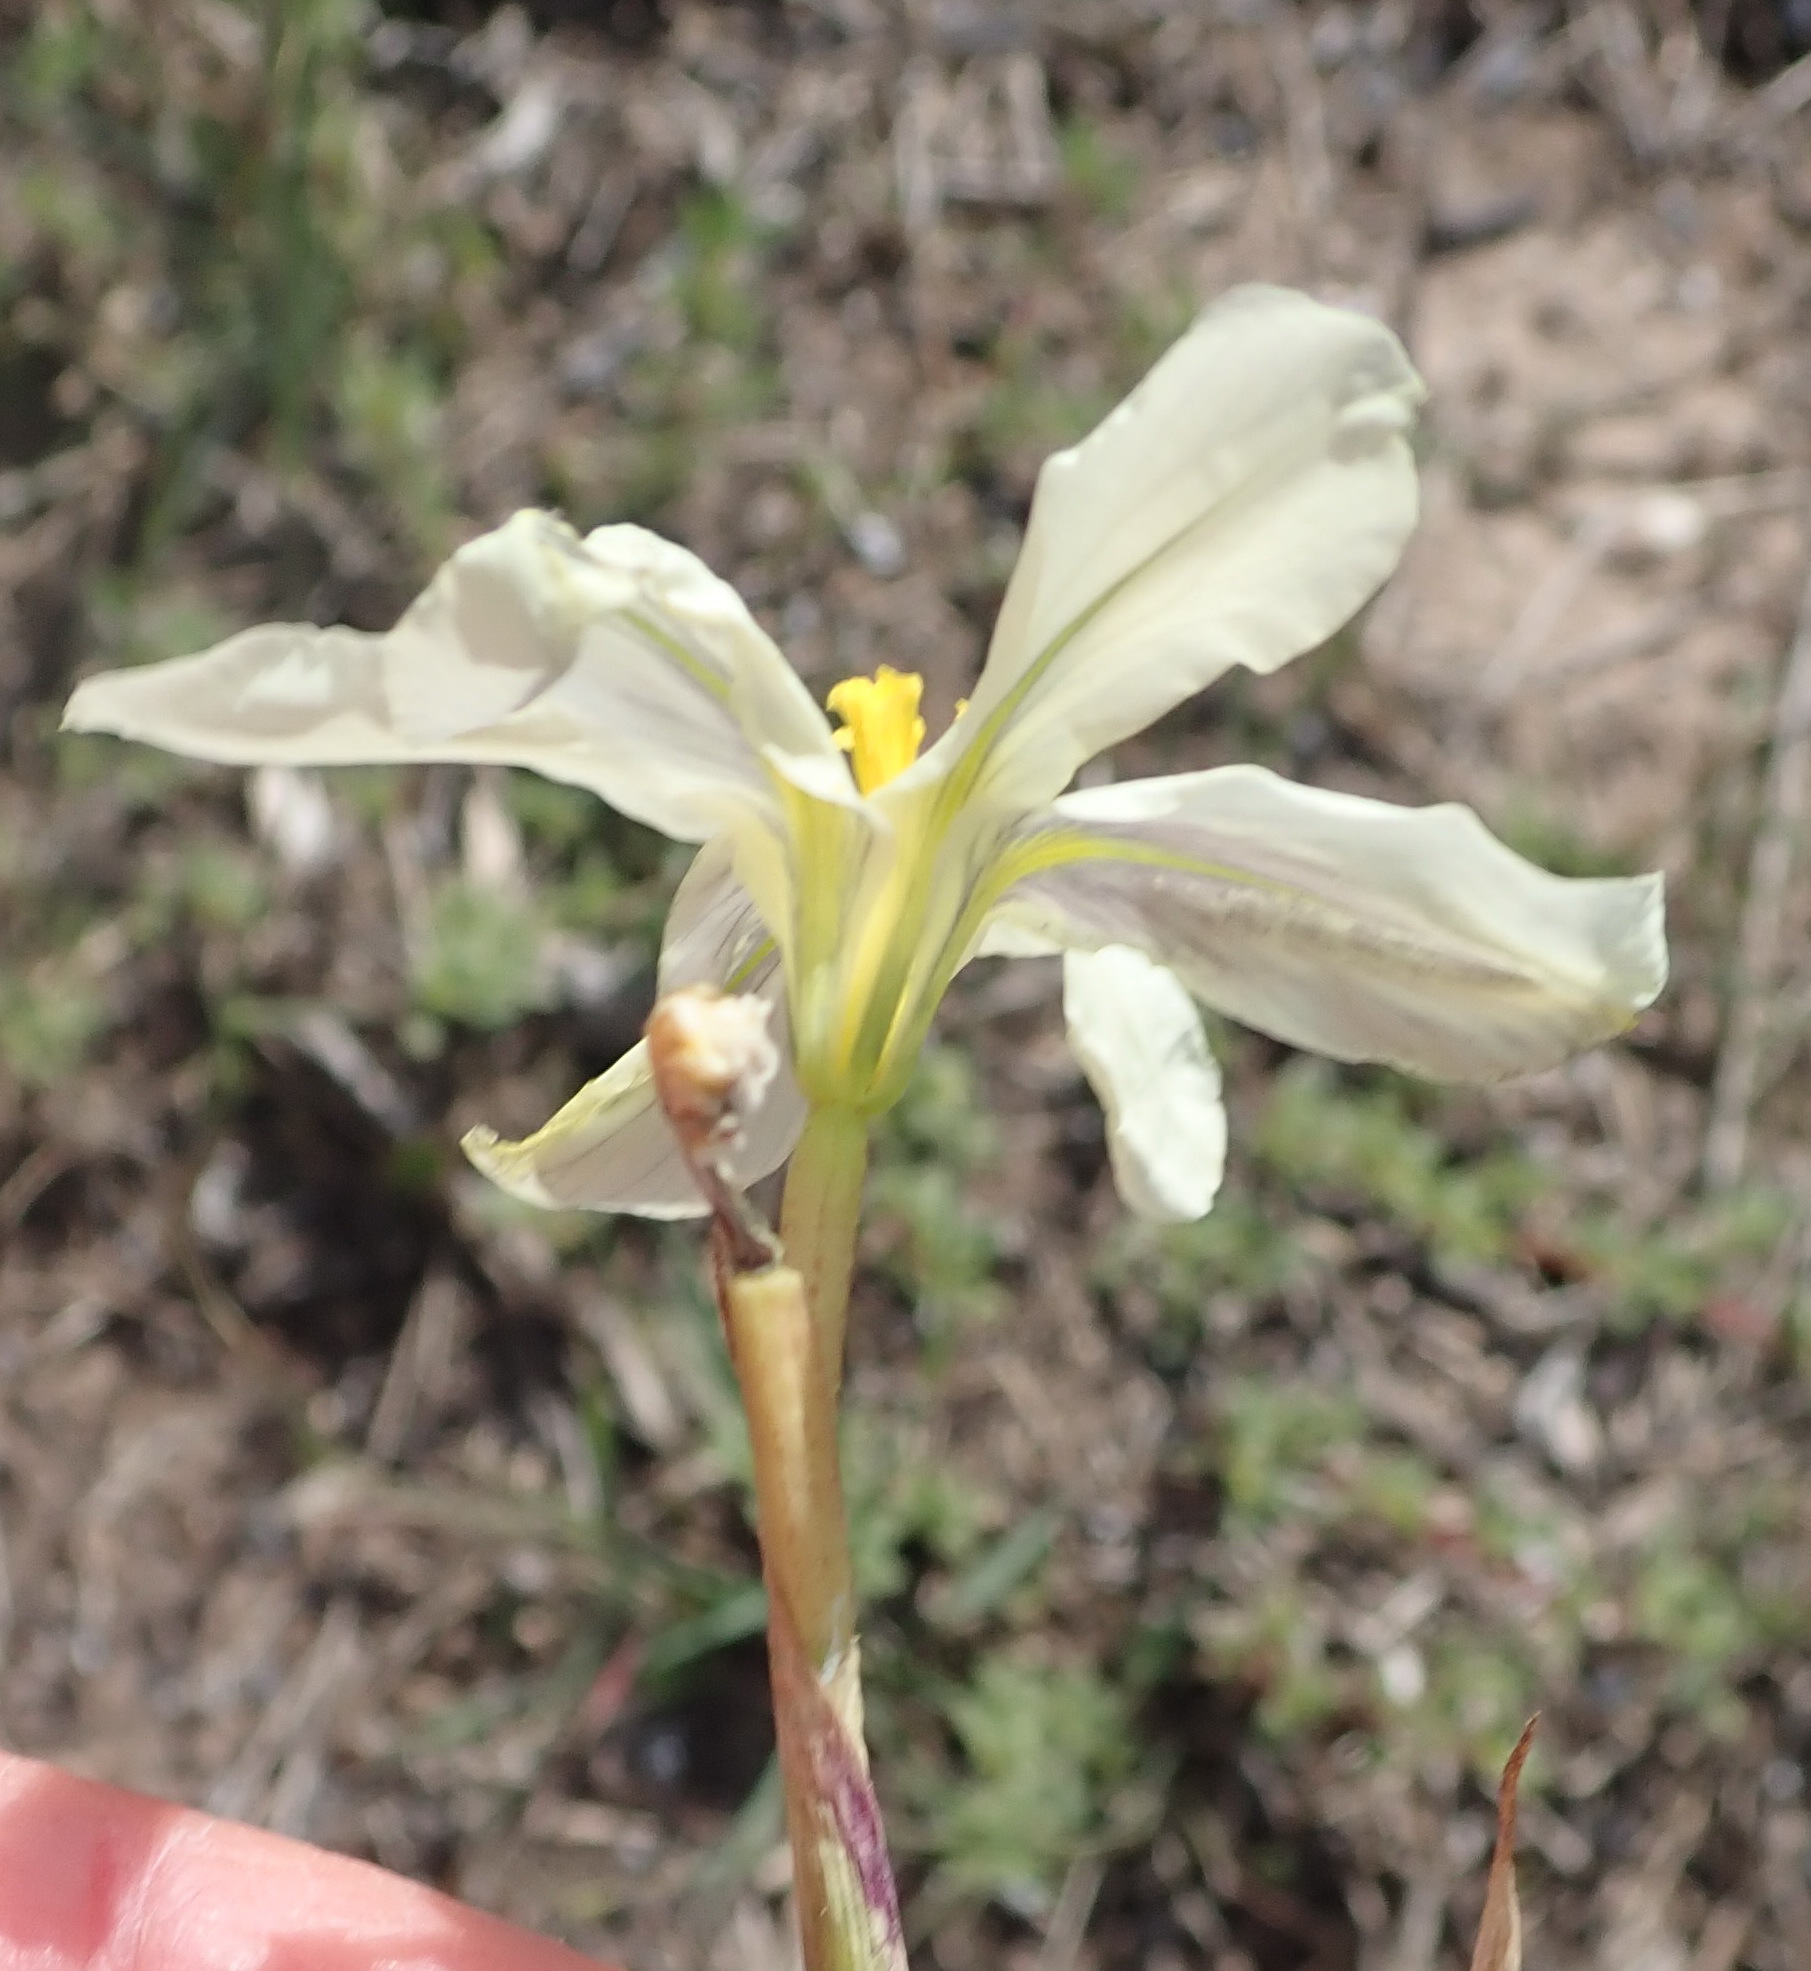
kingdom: Plantae
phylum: Tracheophyta
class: Liliopsida
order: Asparagales
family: Iridaceae
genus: Moraea
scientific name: Moraea bulbillifera
